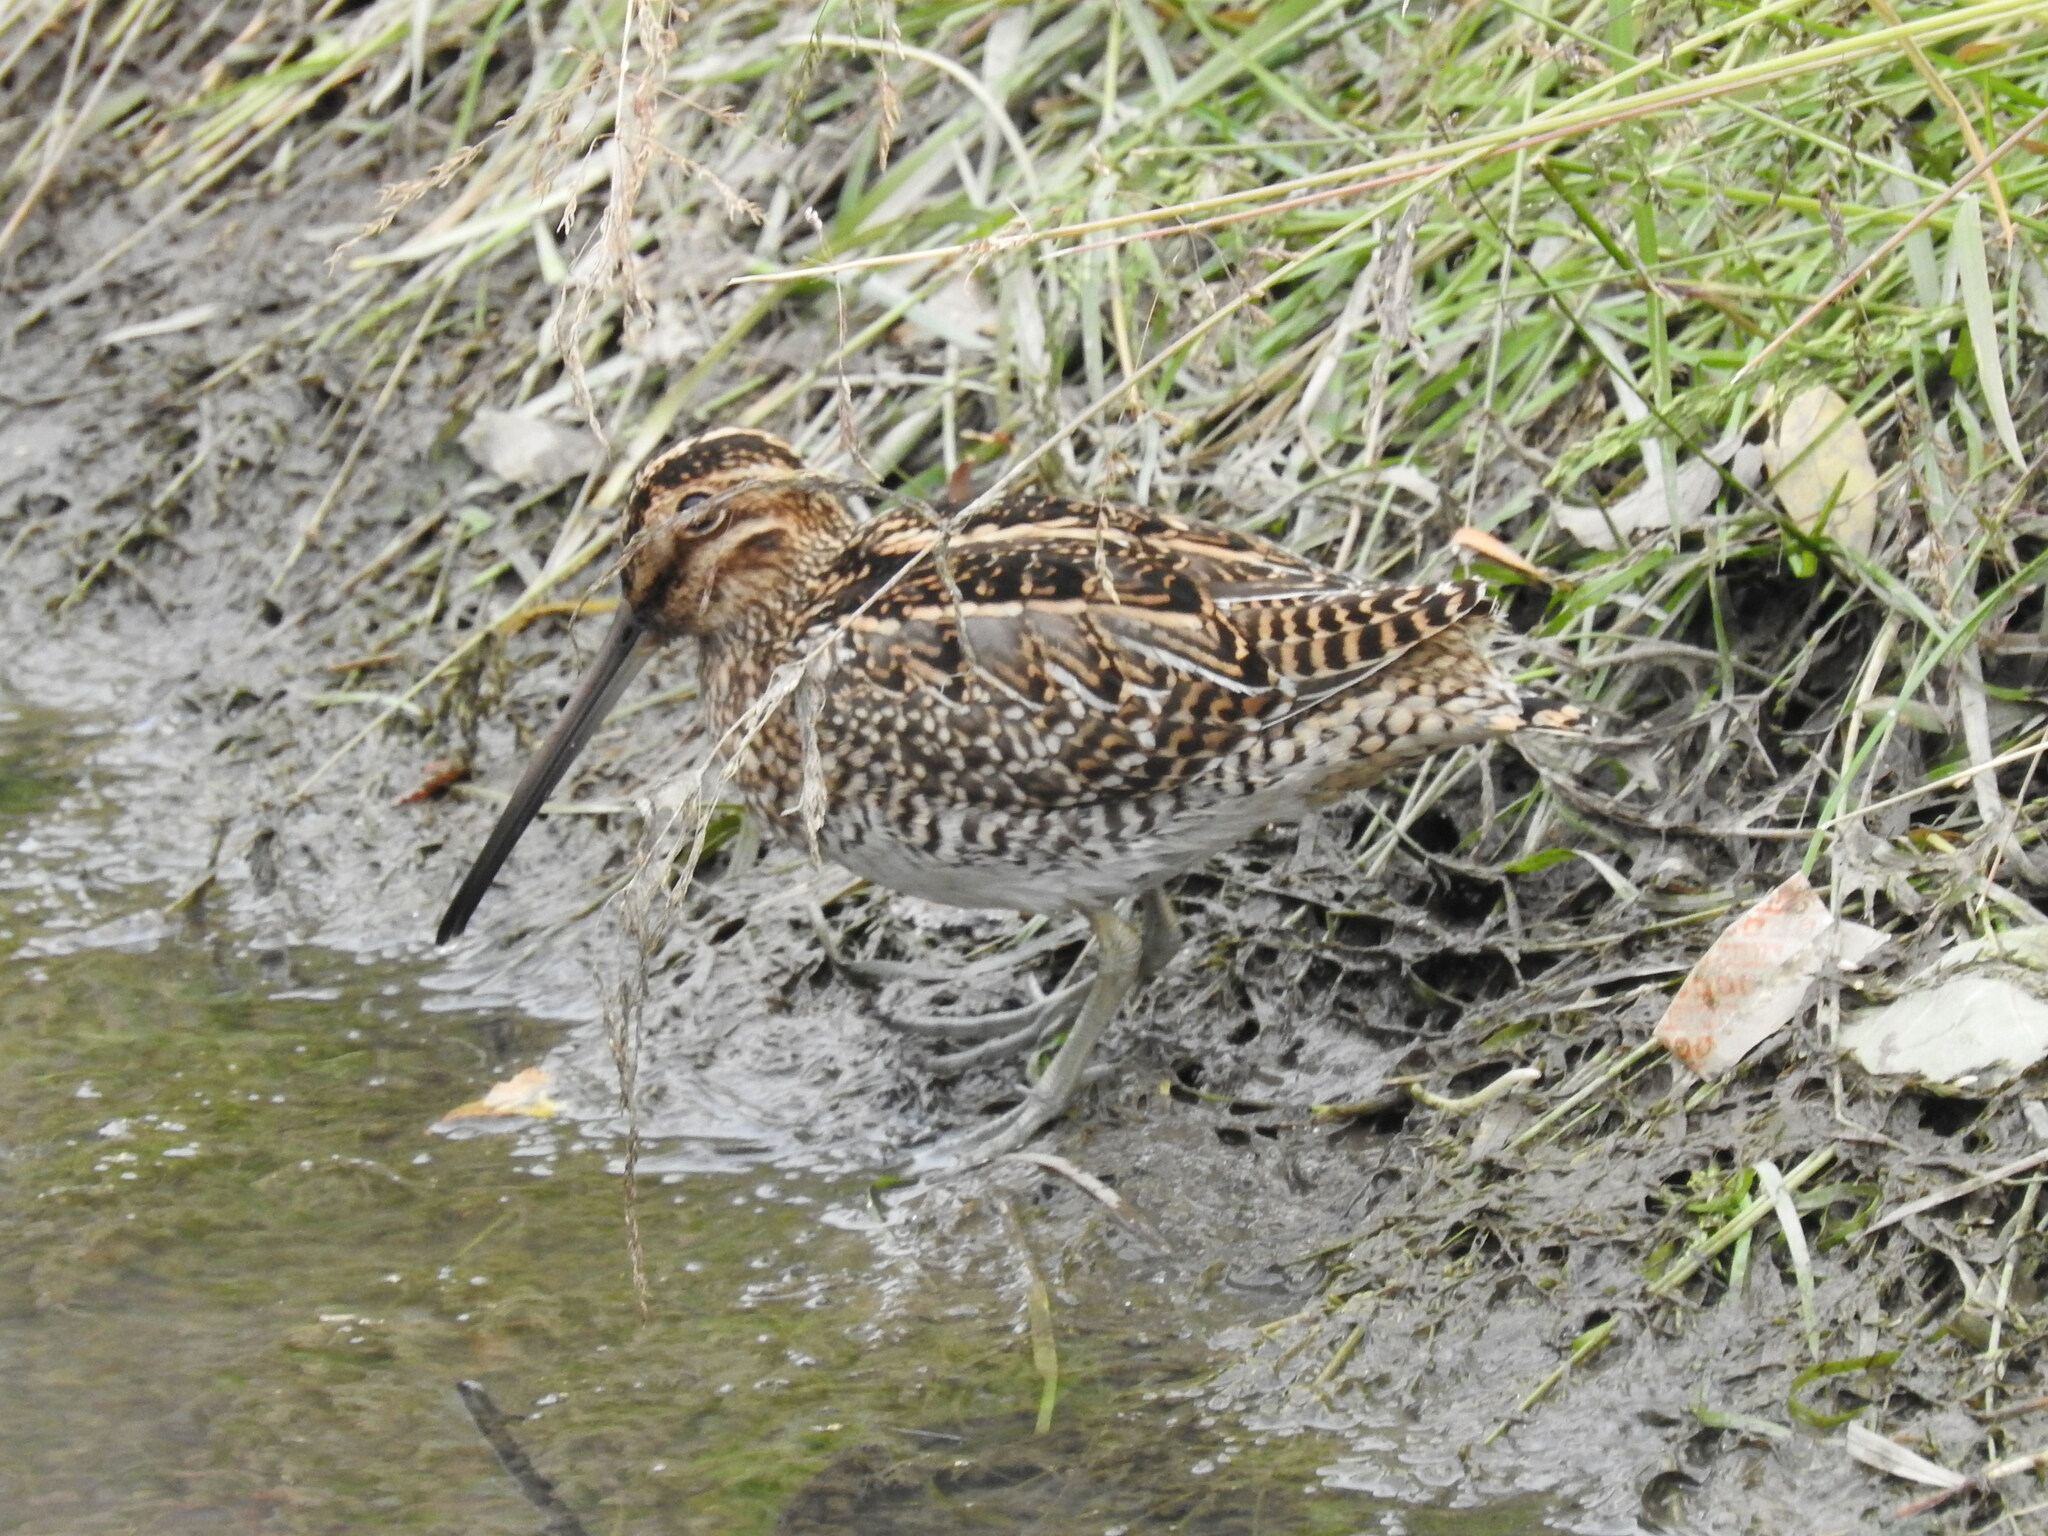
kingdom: Animalia
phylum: Chordata
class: Aves
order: Charadriiformes
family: Scolopacidae
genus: Gallinago
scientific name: Gallinago magellanica
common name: Magellanic snipe
